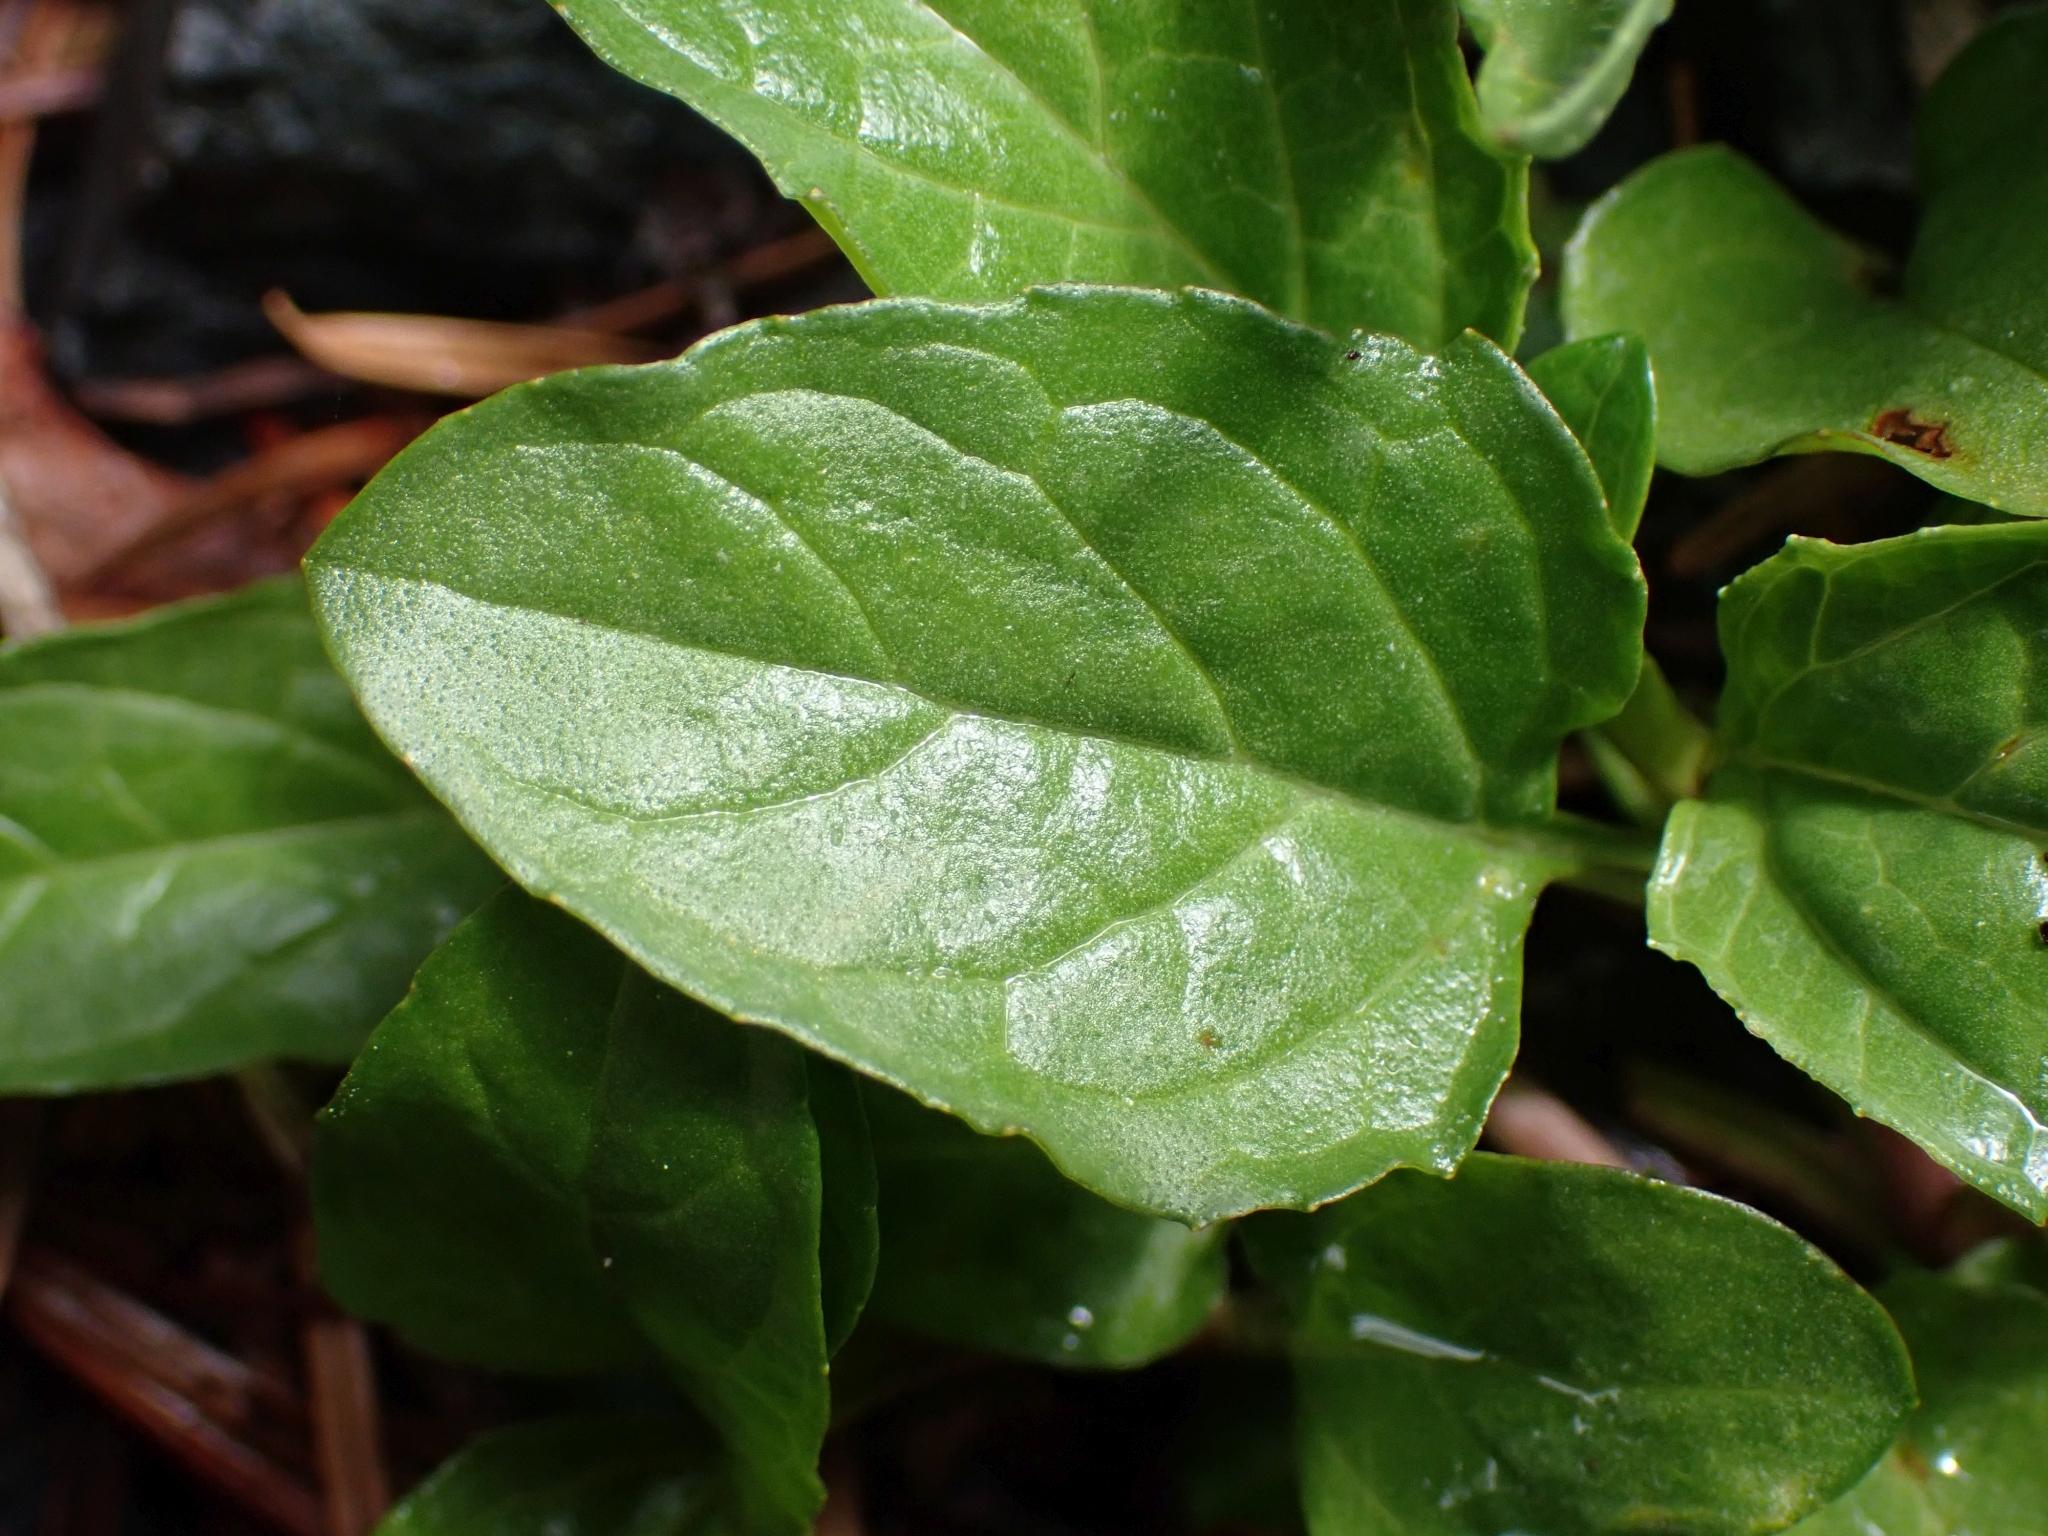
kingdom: Plantae
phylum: Tracheophyta
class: Magnoliopsida
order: Lamiales
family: Lamiaceae
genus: Prunella
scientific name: Prunella vulgaris
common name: Heal-all
